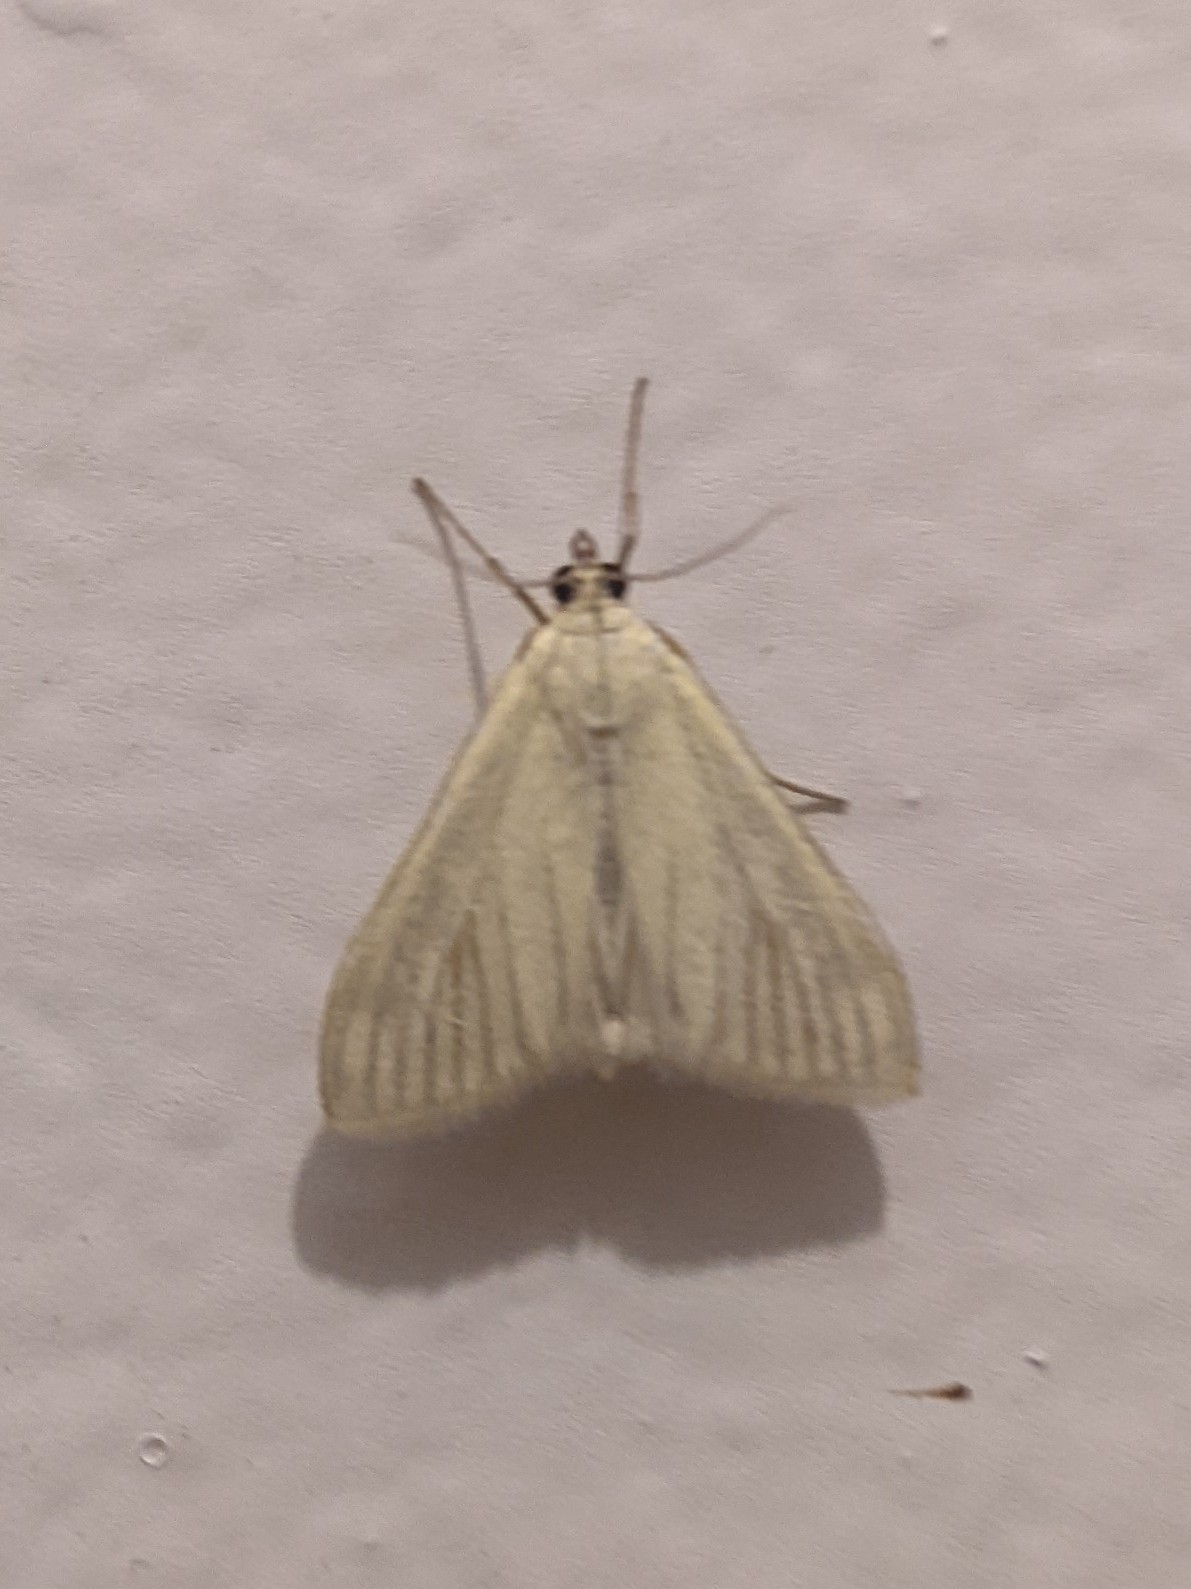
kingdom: Animalia
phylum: Arthropoda
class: Insecta
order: Lepidoptera
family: Crambidae
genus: Sitochroa
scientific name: Sitochroa palealis
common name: Greenish-yellow sitochroa moth
